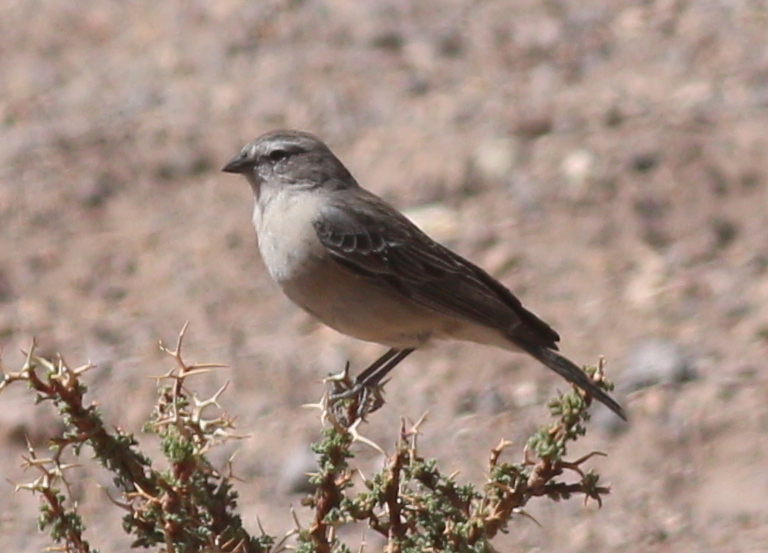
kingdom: Animalia
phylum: Chordata
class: Aves
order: Passeriformes
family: Thraupidae
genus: Geospizopsis
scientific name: Geospizopsis plebejus
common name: Ash-breasted sierra-finch
